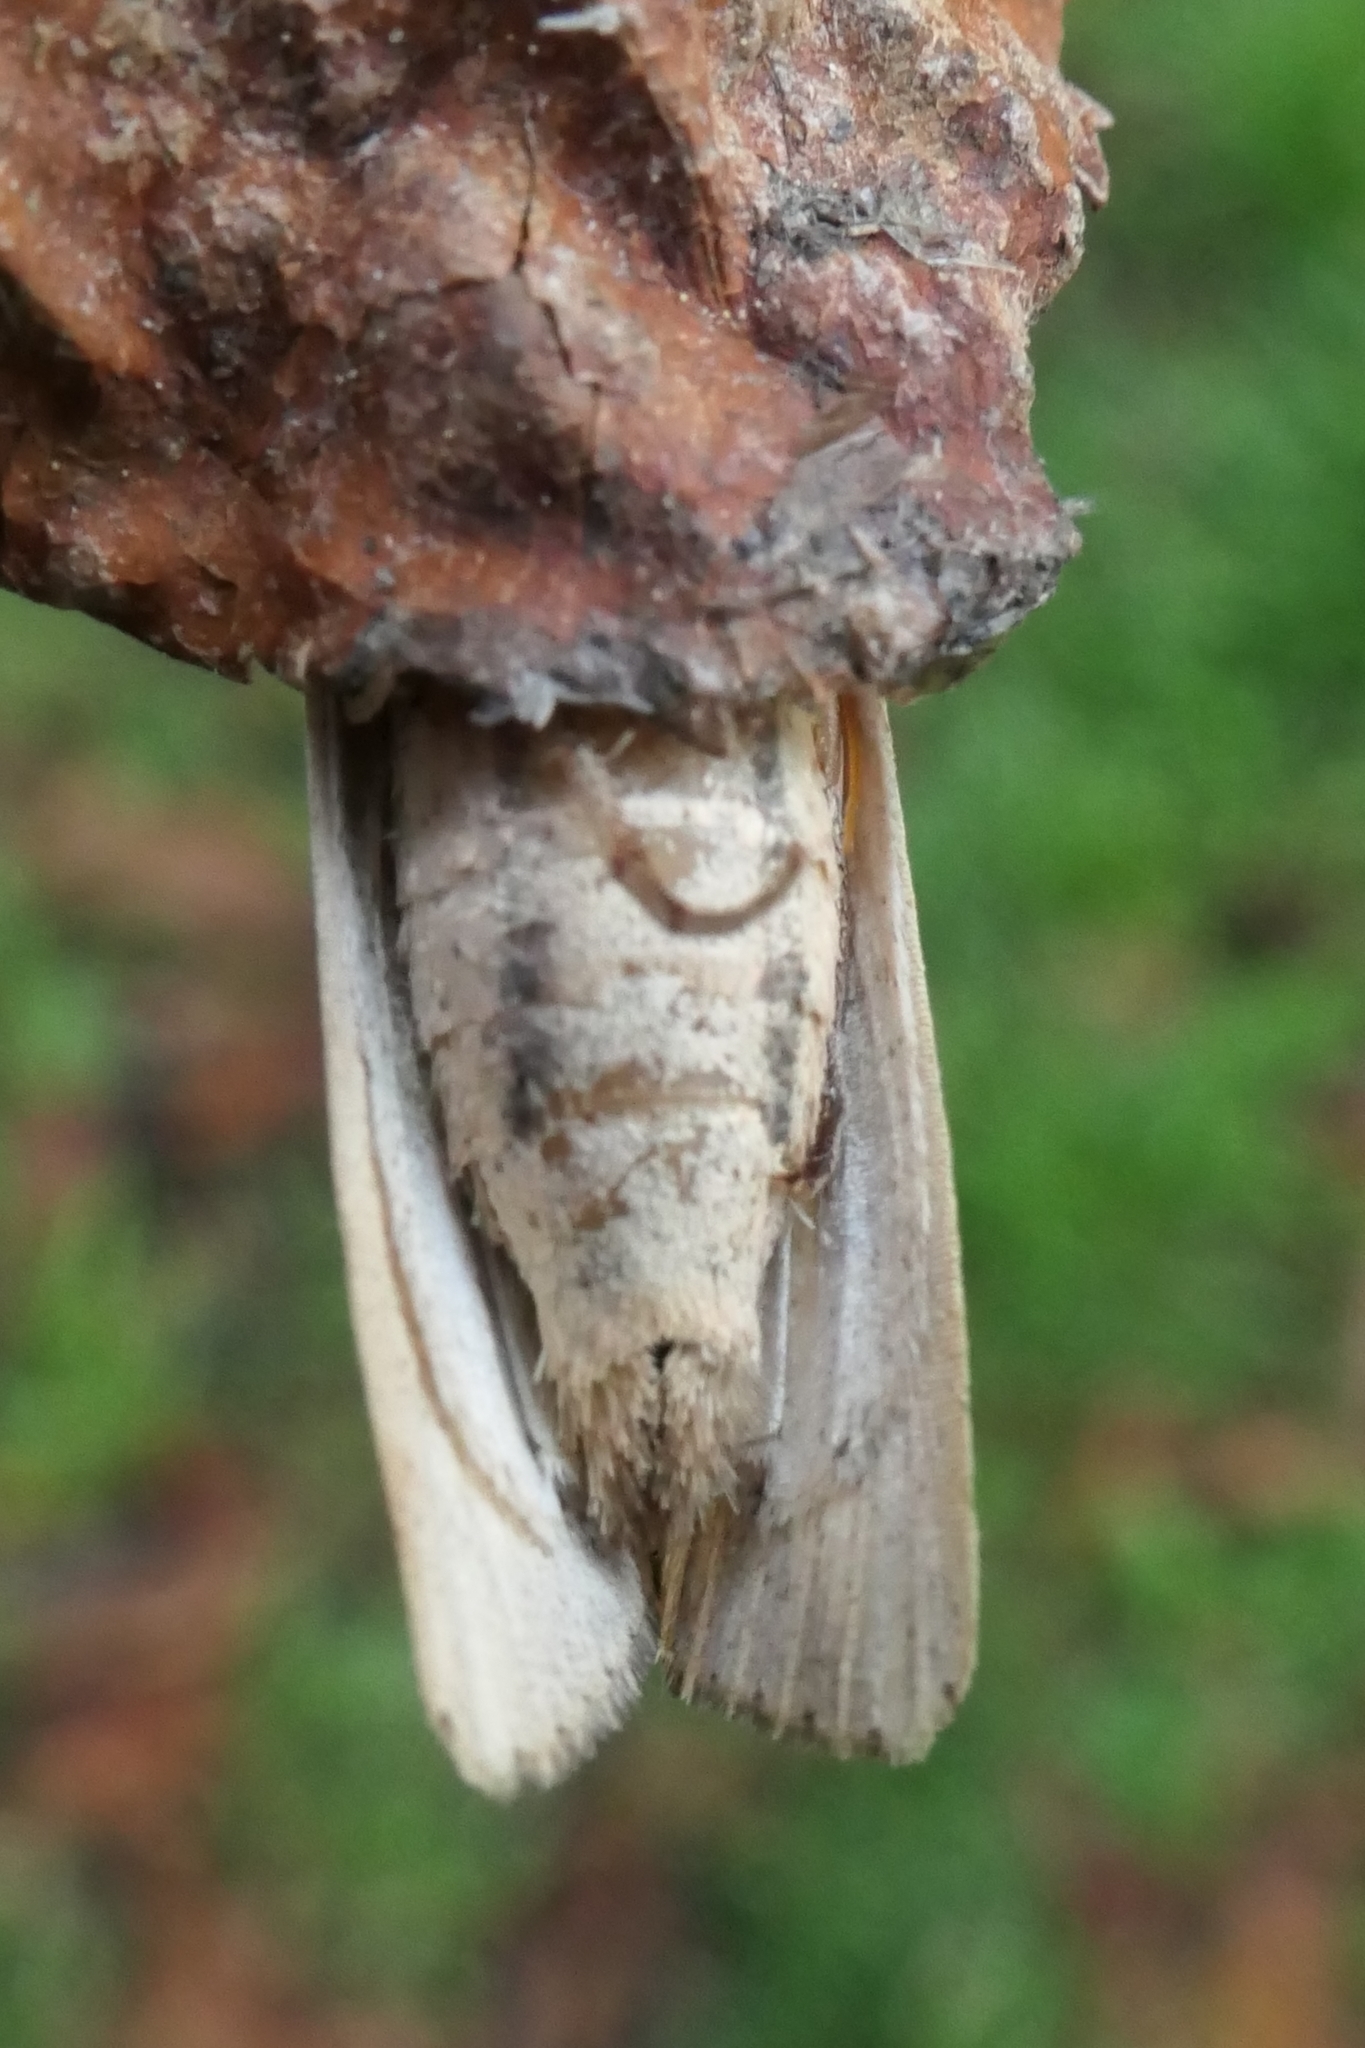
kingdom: Animalia
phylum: Arthropoda
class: Insecta
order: Lepidoptera
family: Noctuidae
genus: Leucania
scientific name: Leucania stenographa
